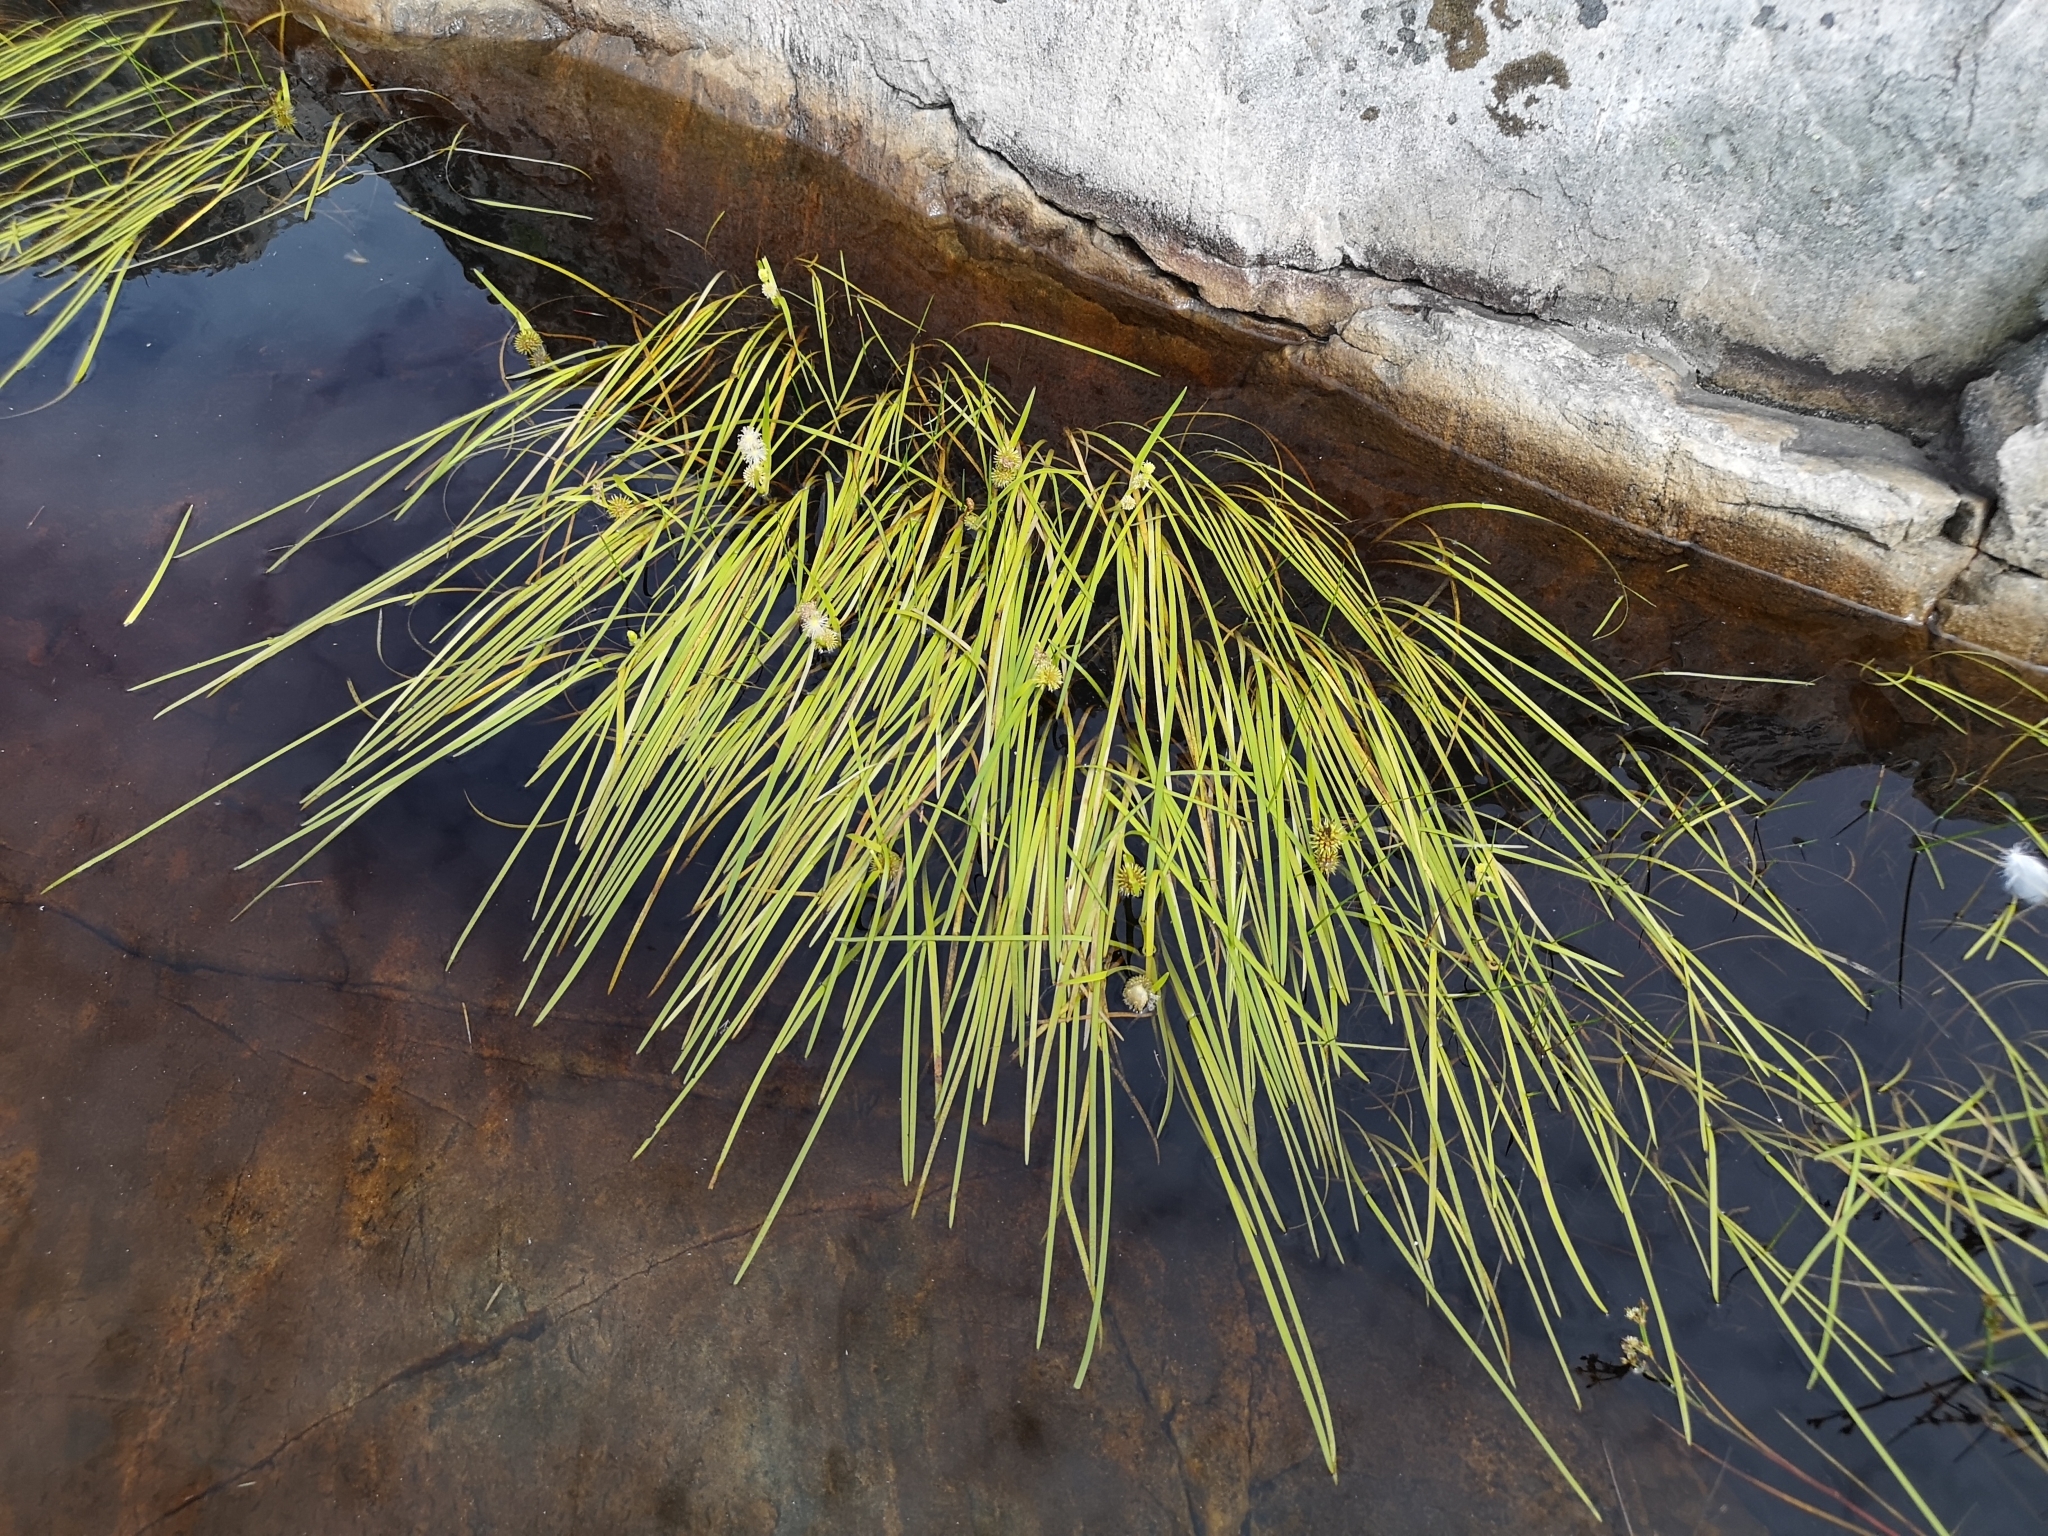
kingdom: Plantae
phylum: Tracheophyta
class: Liliopsida
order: Poales
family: Typhaceae
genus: Sparganium
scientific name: Sparganium angustifolium
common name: Floating bur-reed
